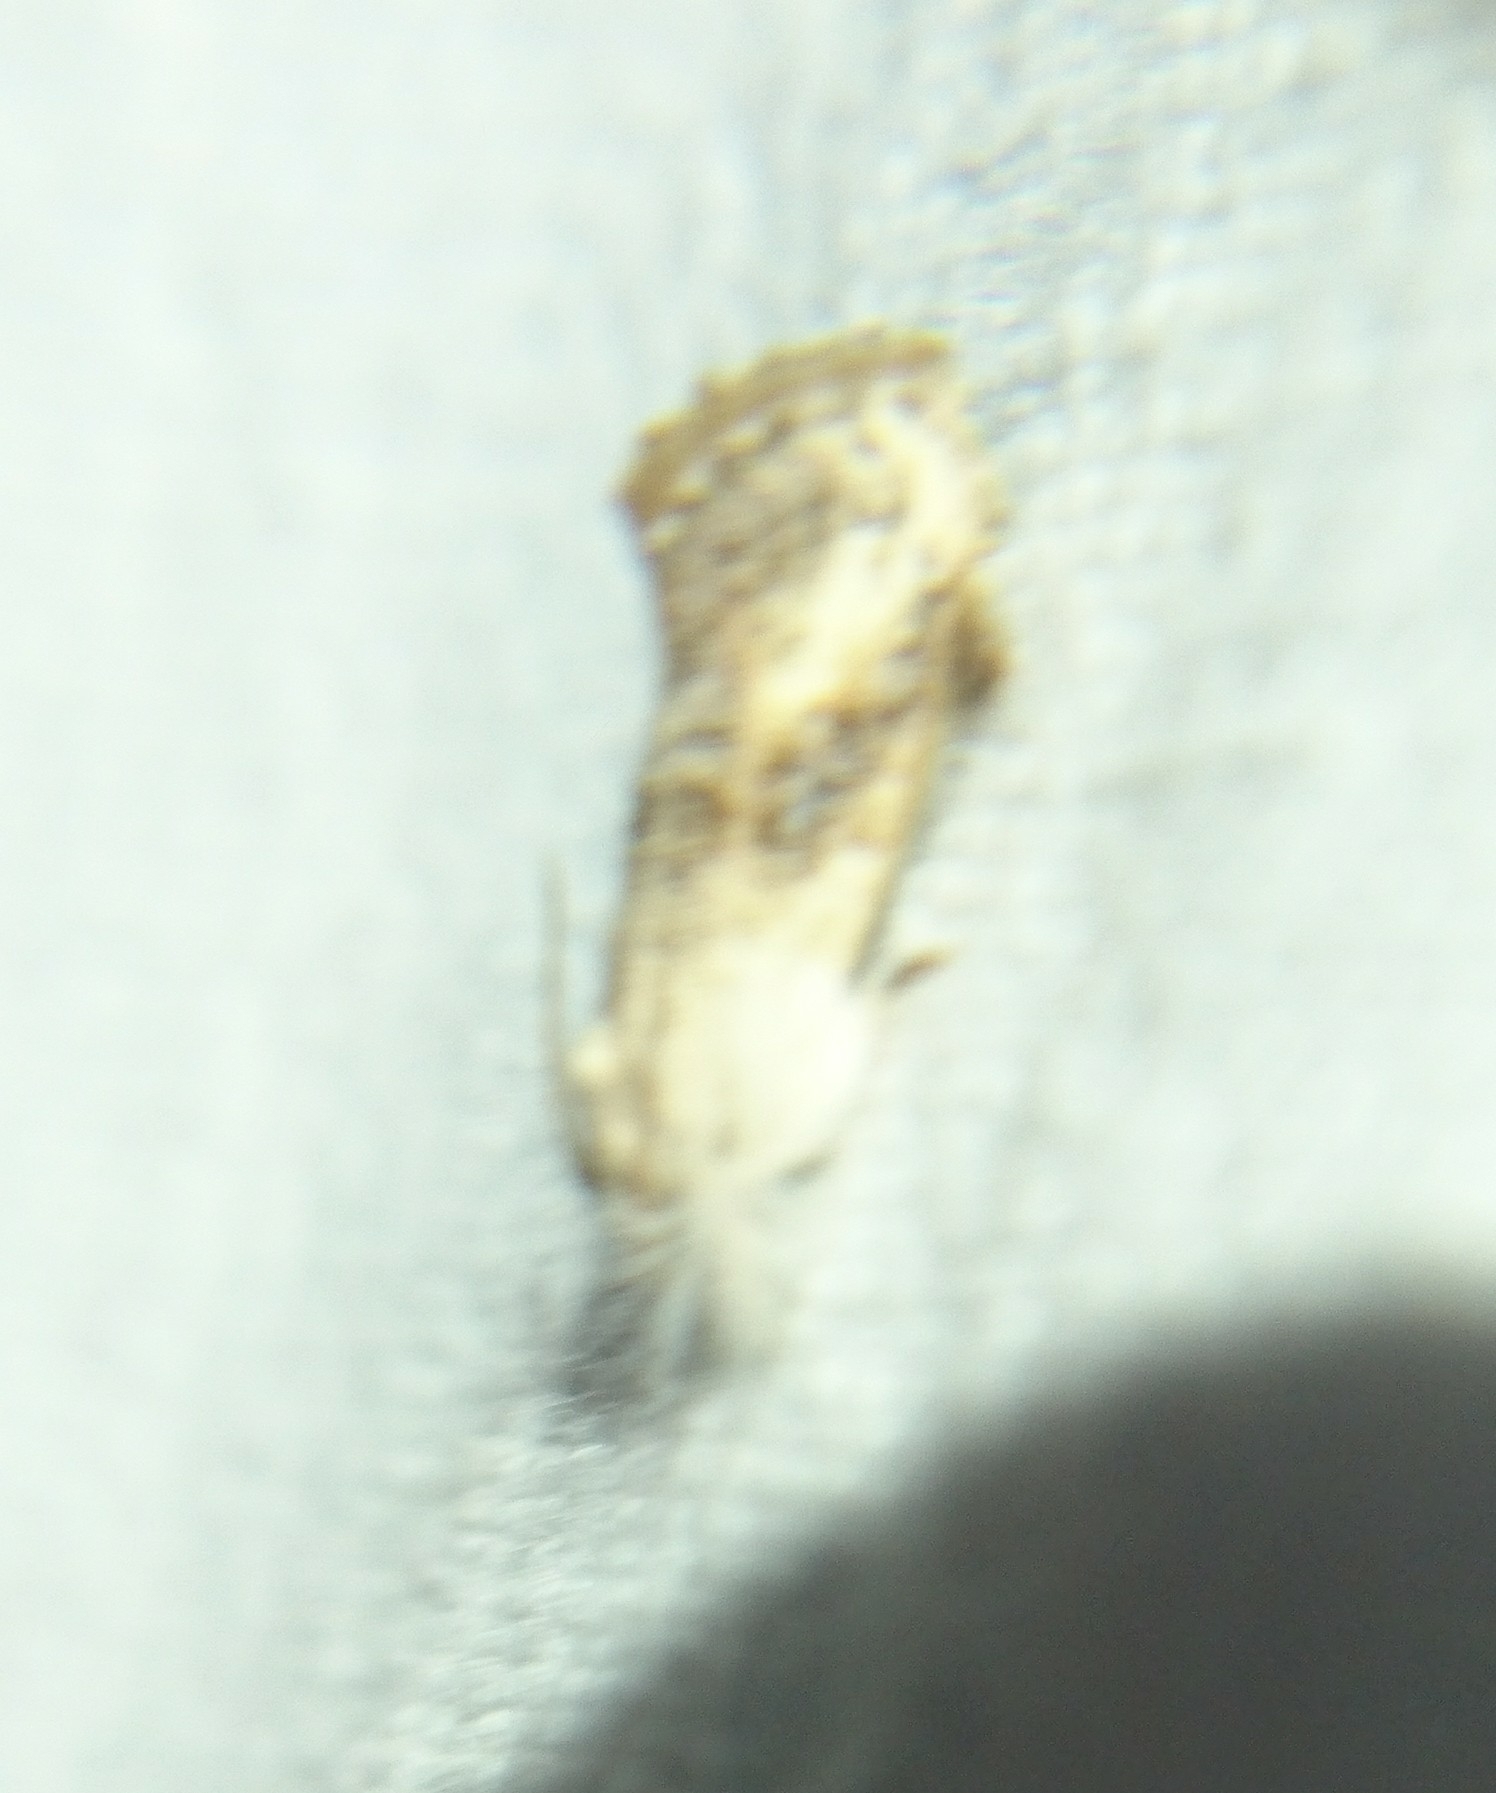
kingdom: Animalia
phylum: Arthropoda
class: Insecta
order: Lepidoptera
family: Tineidae
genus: Acrolophus
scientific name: Acrolophus mycetophagus
